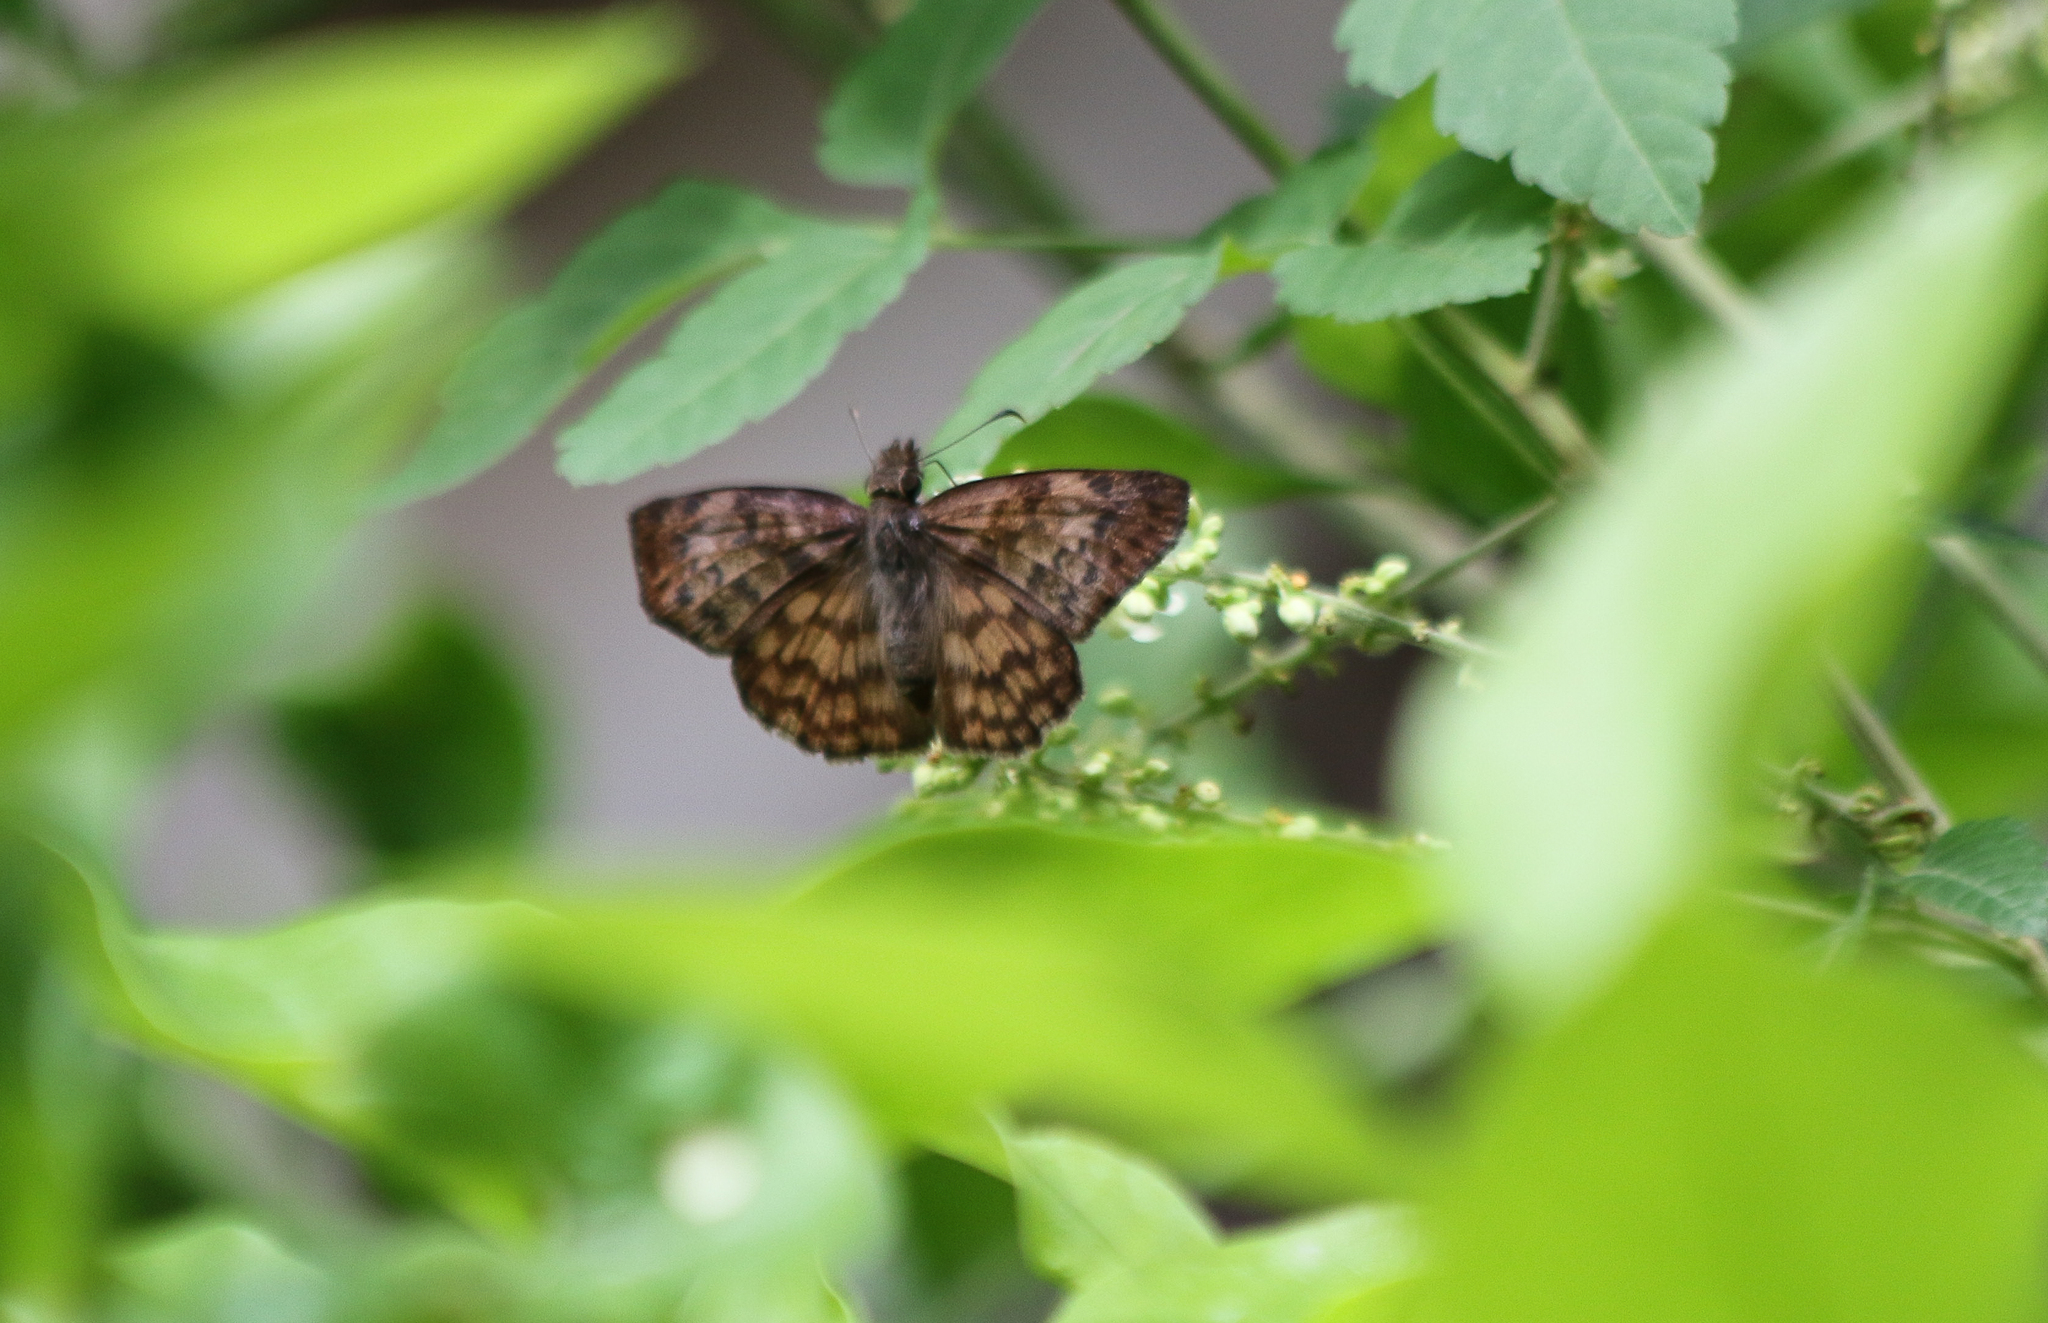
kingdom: Animalia
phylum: Arthropoda
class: Insecta
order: Lepidoptera
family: Hesperiidae
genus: Timochares
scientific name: Timochares ruptifasciata
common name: Brown-banded skipper
